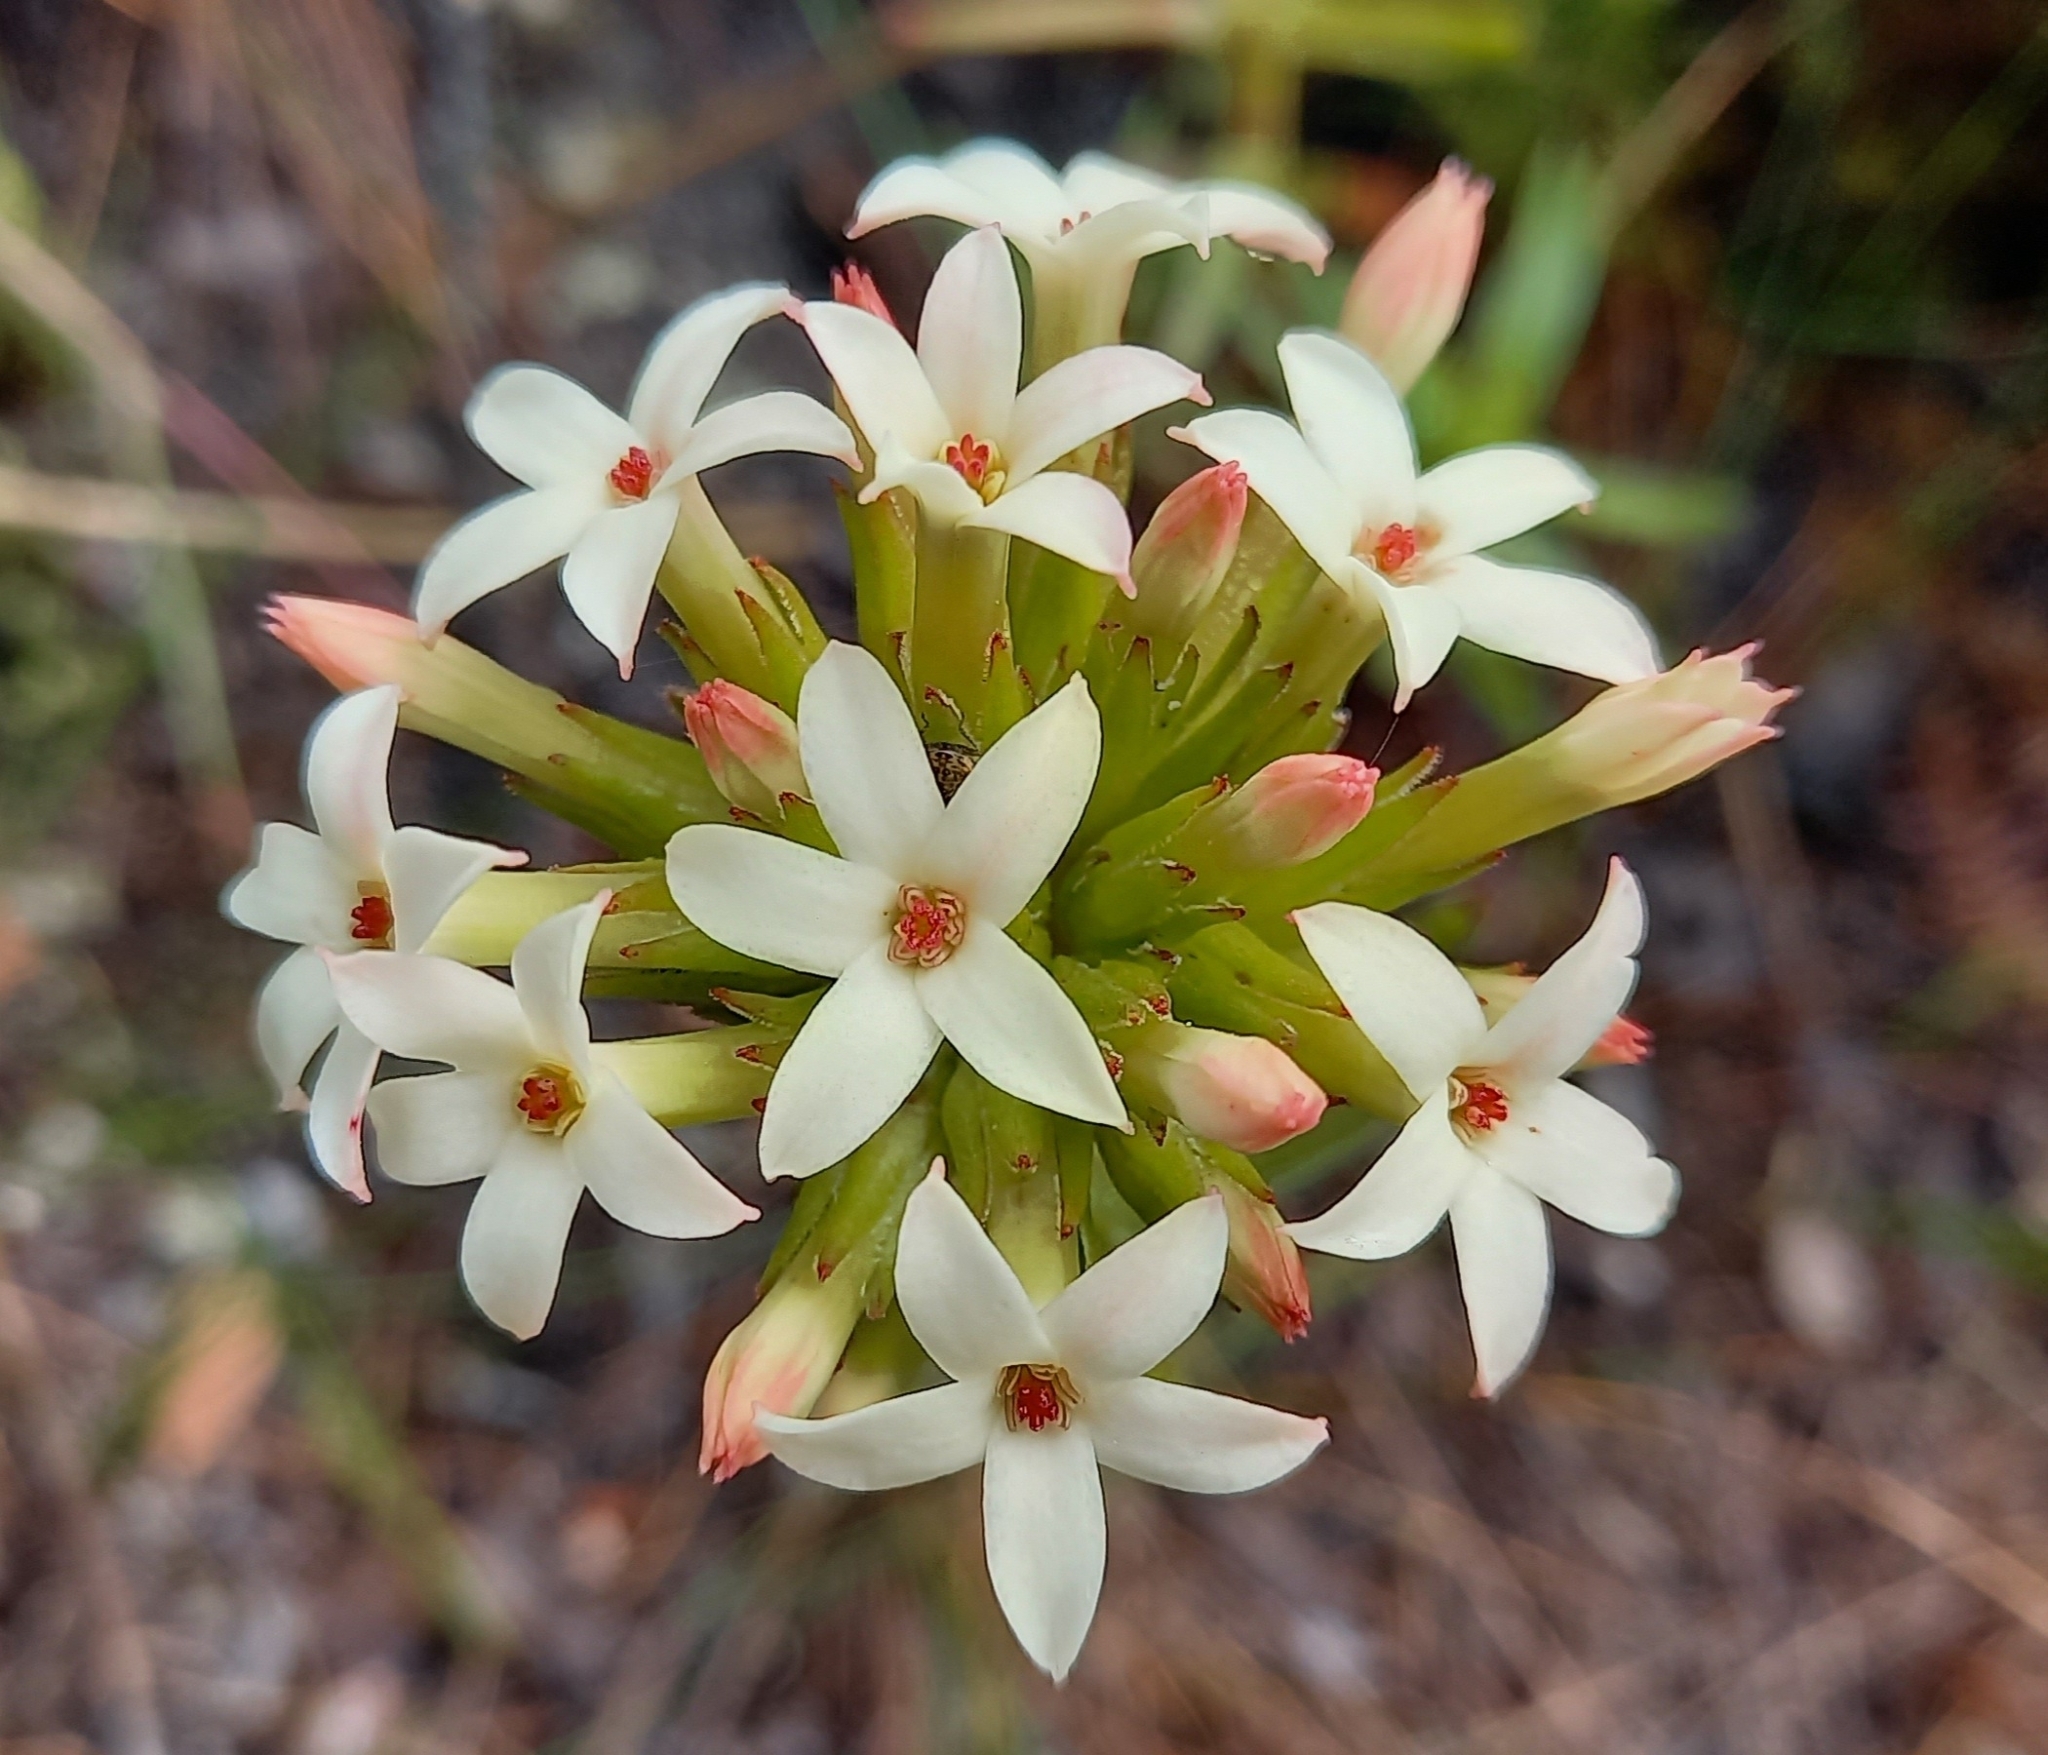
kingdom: Plantae
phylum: Tracheophyta
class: Magnoliopsida
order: Saxifragales
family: Crassulaceae
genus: Crassula
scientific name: Crassula fascicularis
